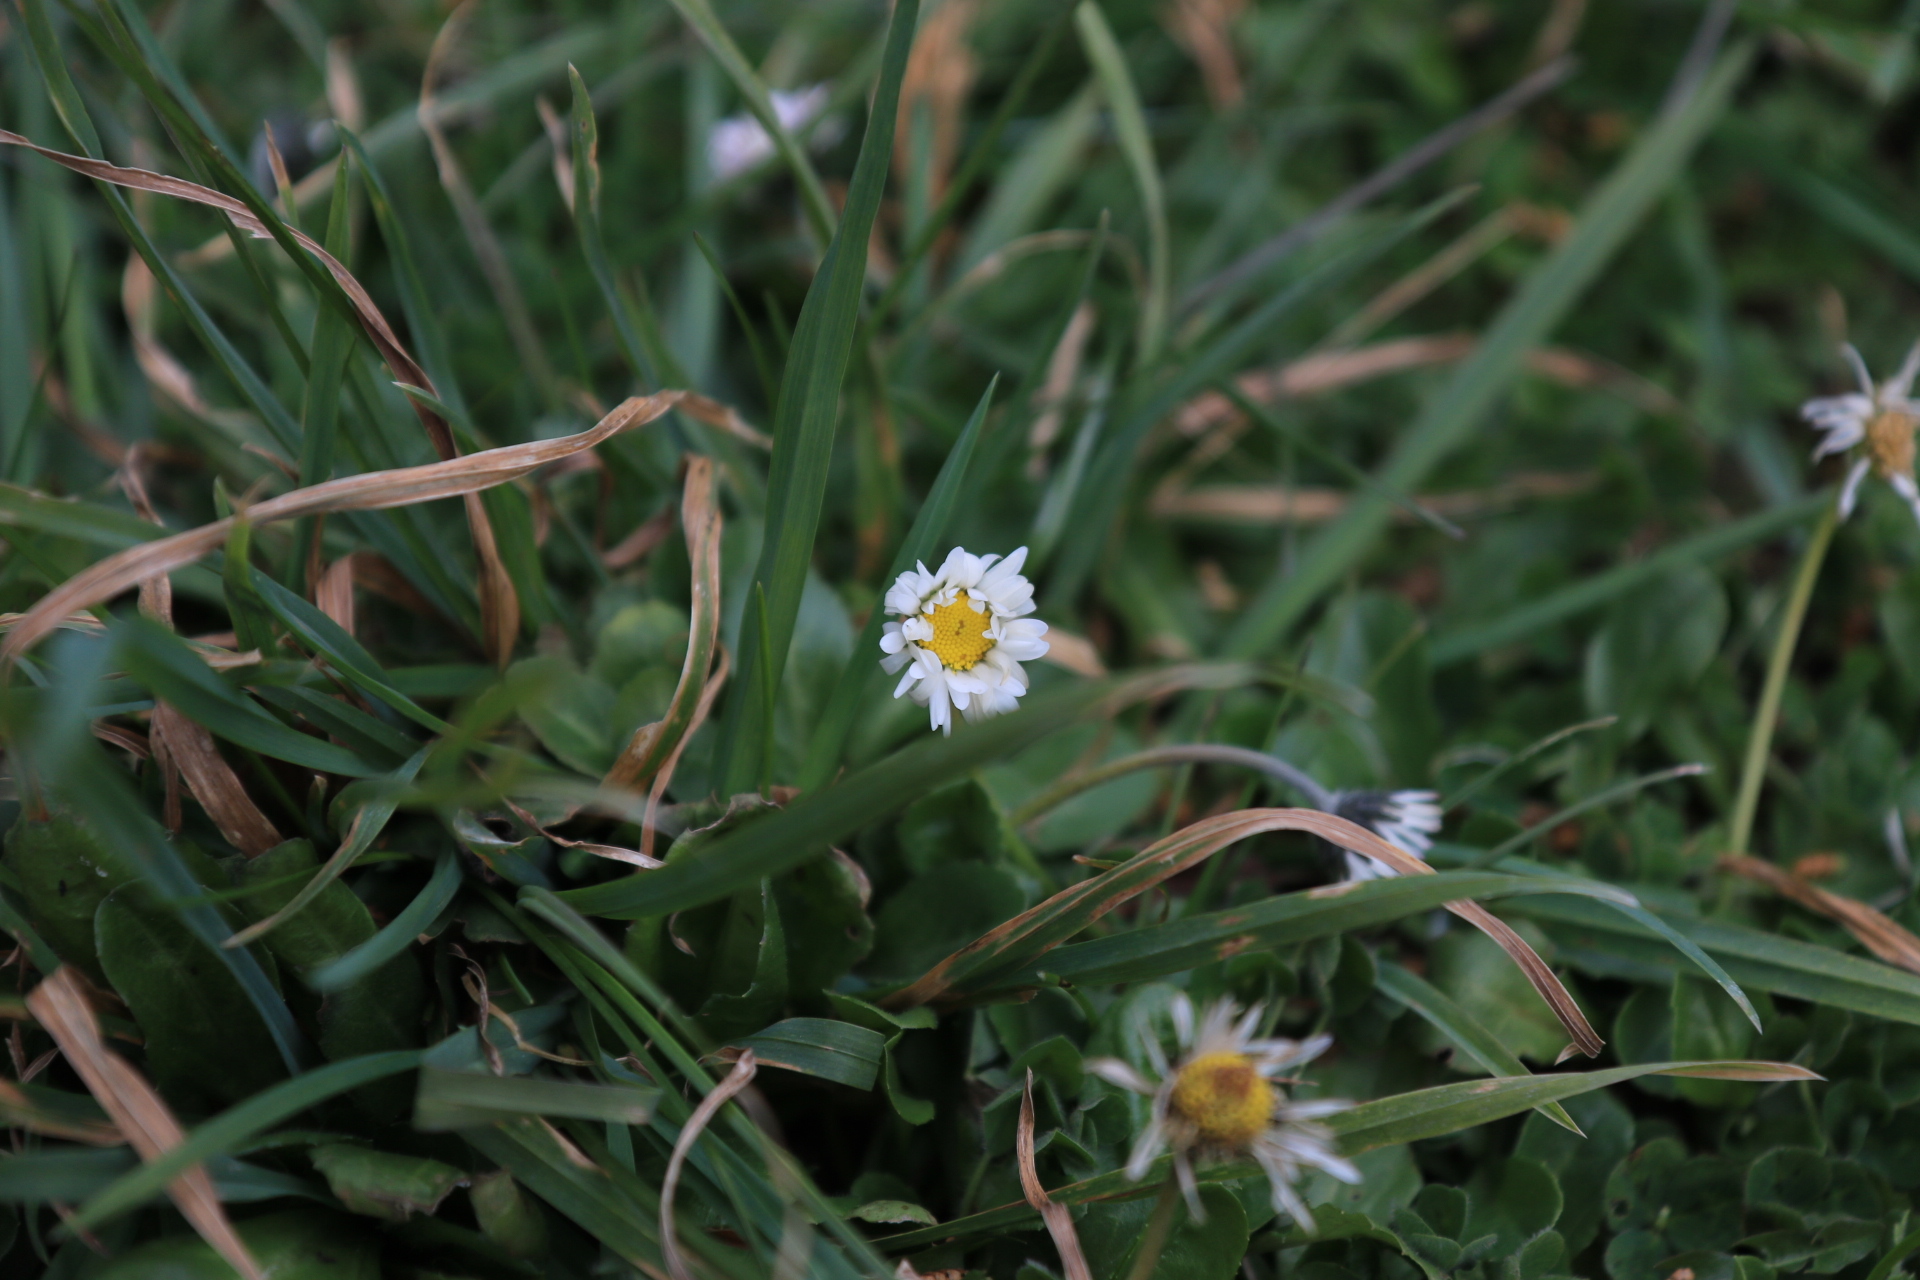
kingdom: Plantae
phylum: Tracheophyta
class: Magnoliopsida
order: Asterales
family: Asteraceae
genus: Bellis
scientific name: Bellis perennis
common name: Lawndaisy
